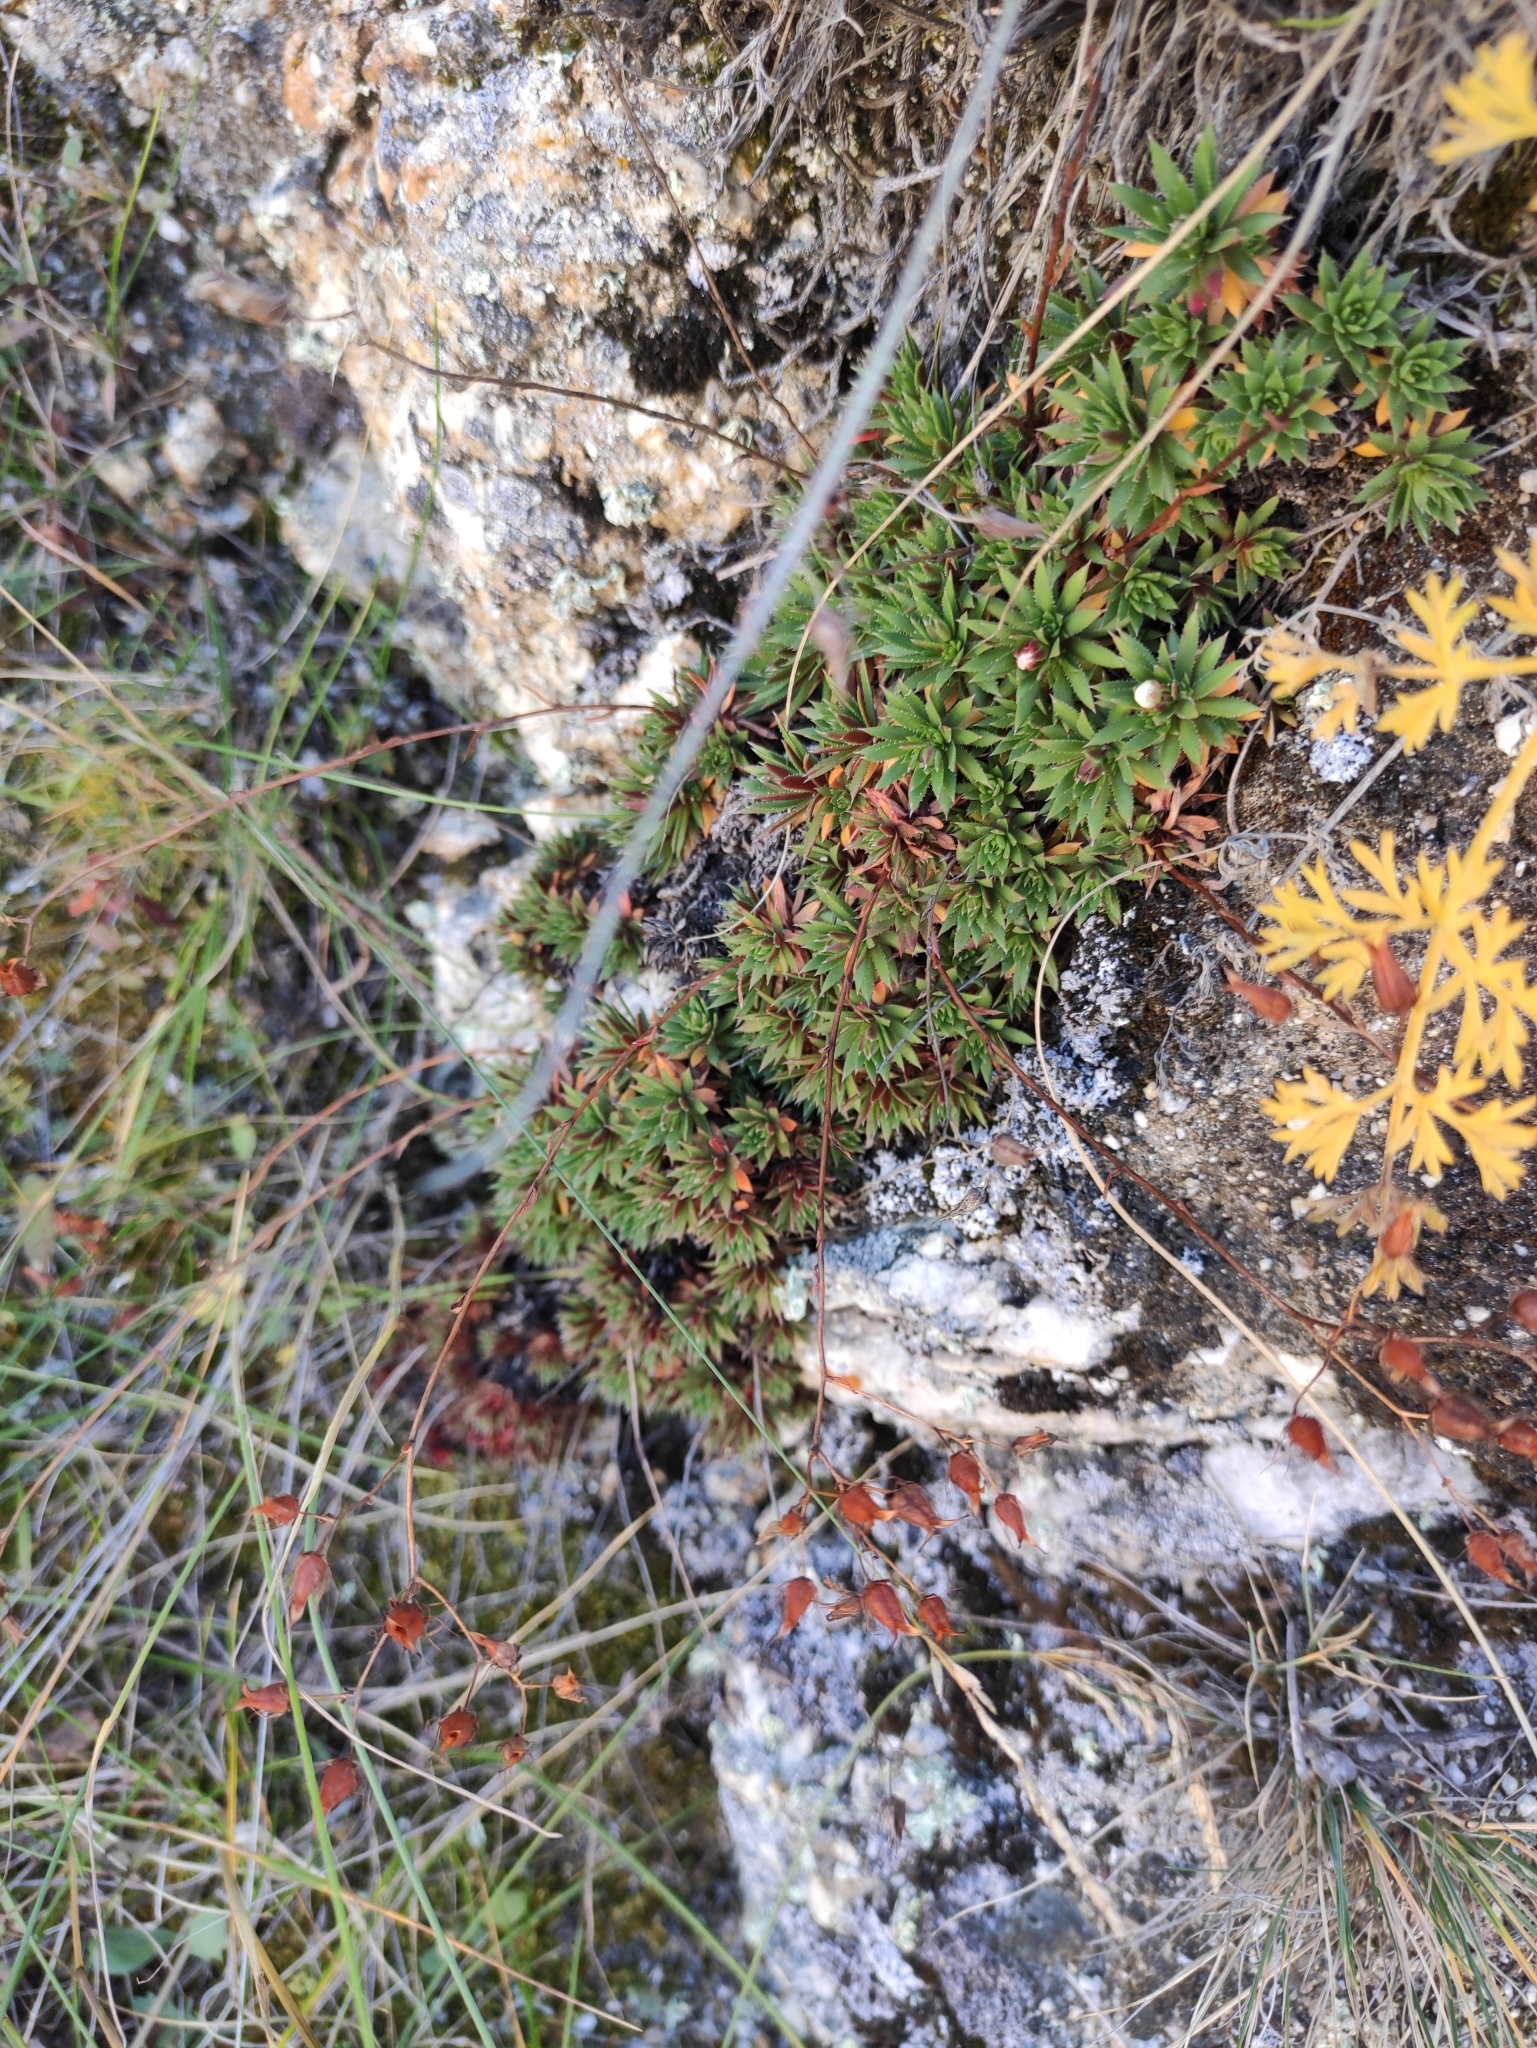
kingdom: Plantae
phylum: Tracheophyta
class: Magnoliopsida
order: Saxifragales
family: Saxifragaceae
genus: Saxifraga
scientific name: Saxifraga
